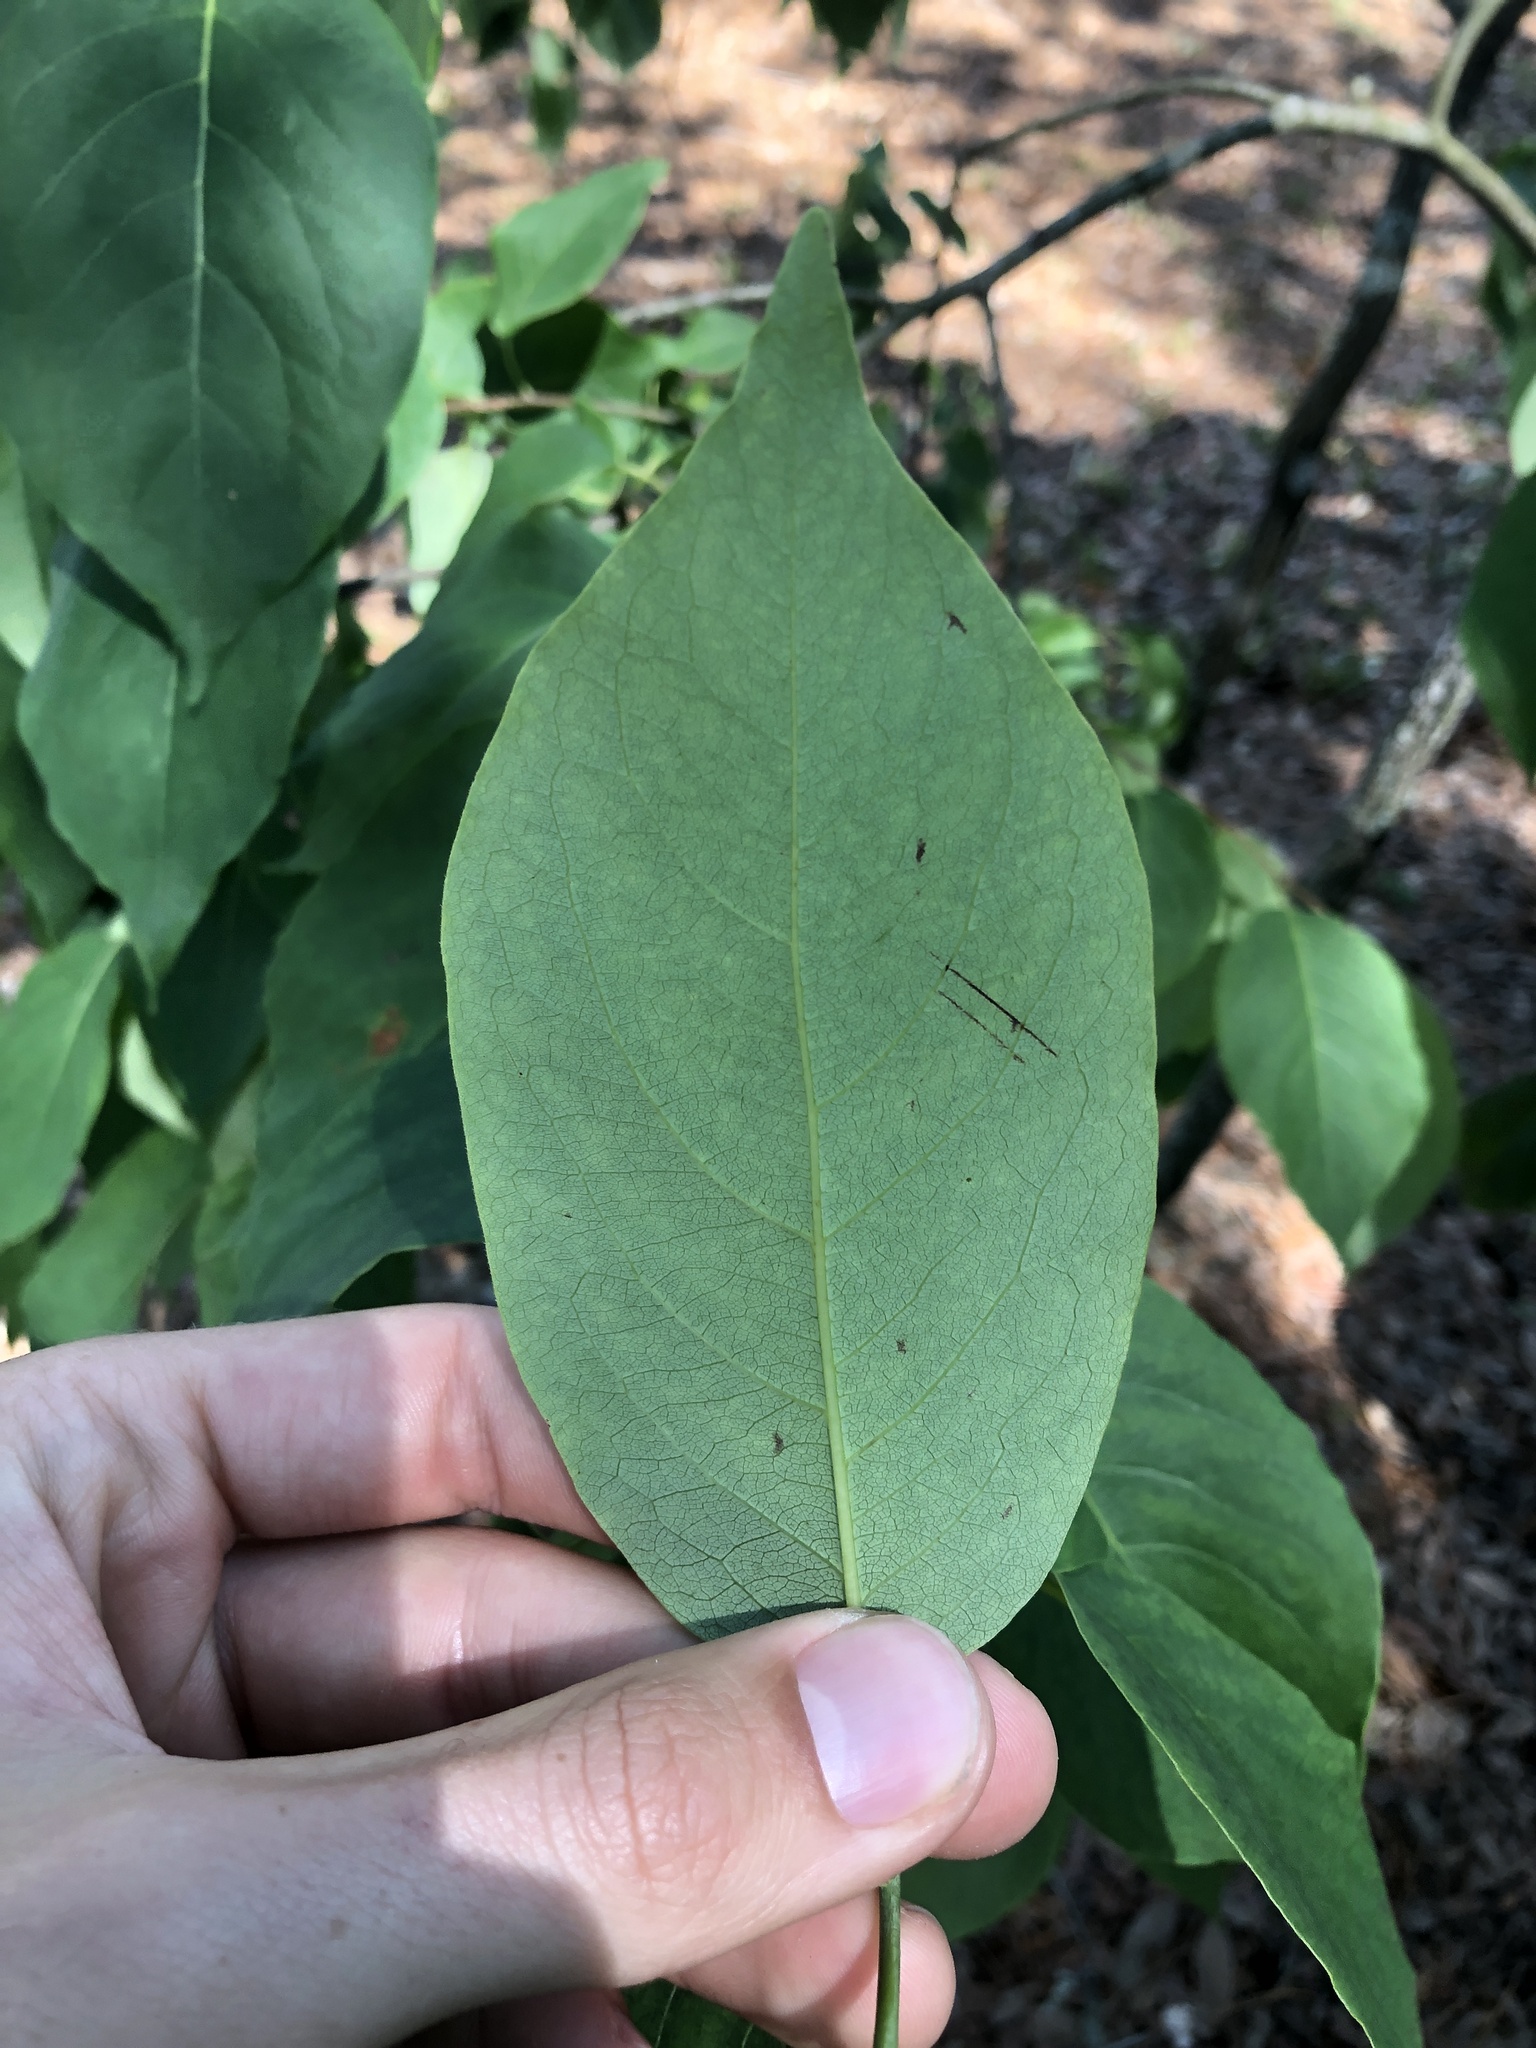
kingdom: Plantae
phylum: Tracheophyta
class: Magnoliopsida
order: Ericales
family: Ebenaceae
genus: Diospyros
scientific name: Diospyros virginiana
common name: Persimmon
